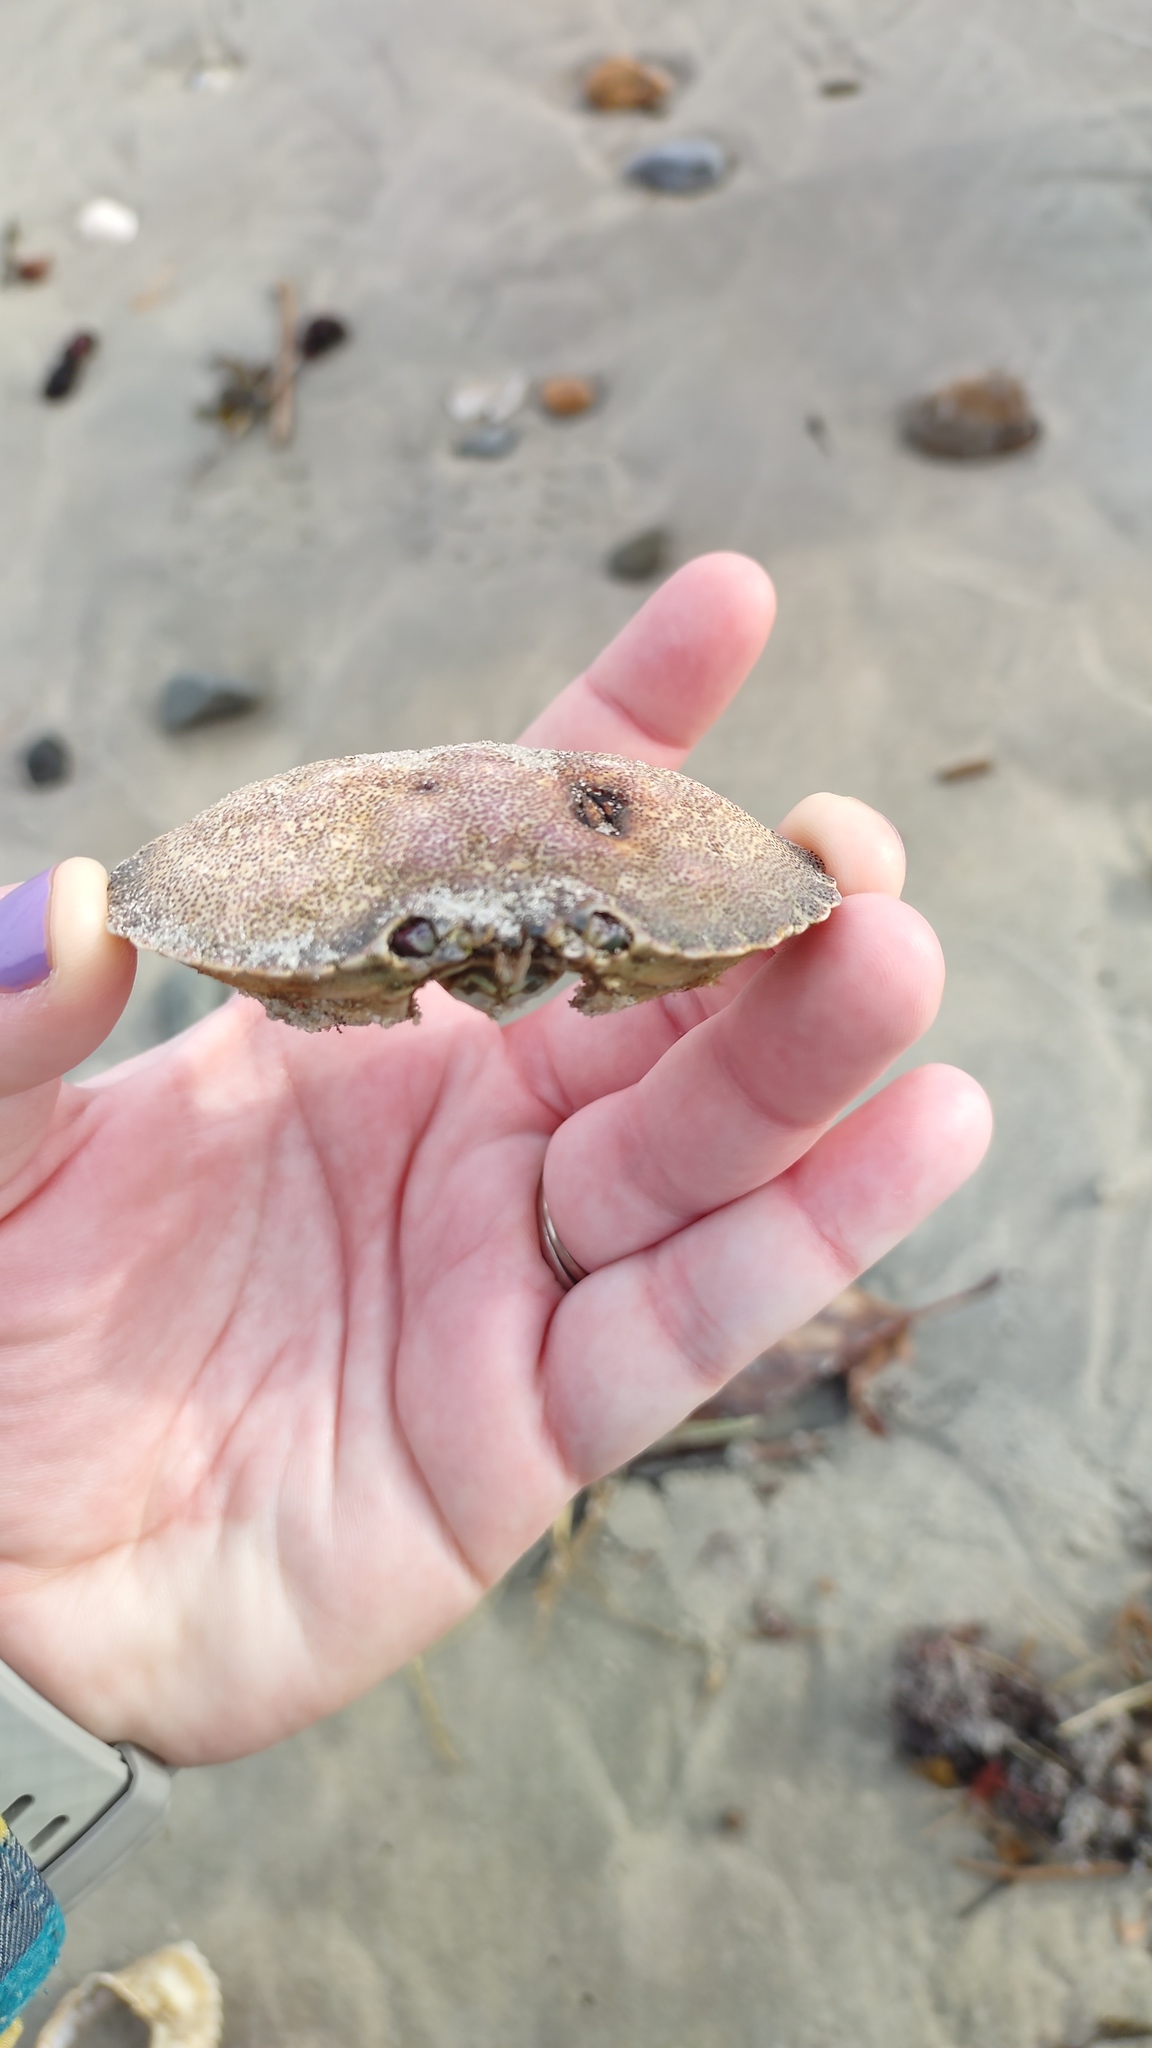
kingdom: Animalia
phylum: Arthropoda
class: Malacostraca
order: Decapoda
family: Cancridae
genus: Cancer
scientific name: Cancer irroratus
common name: Atlantic rock crab
